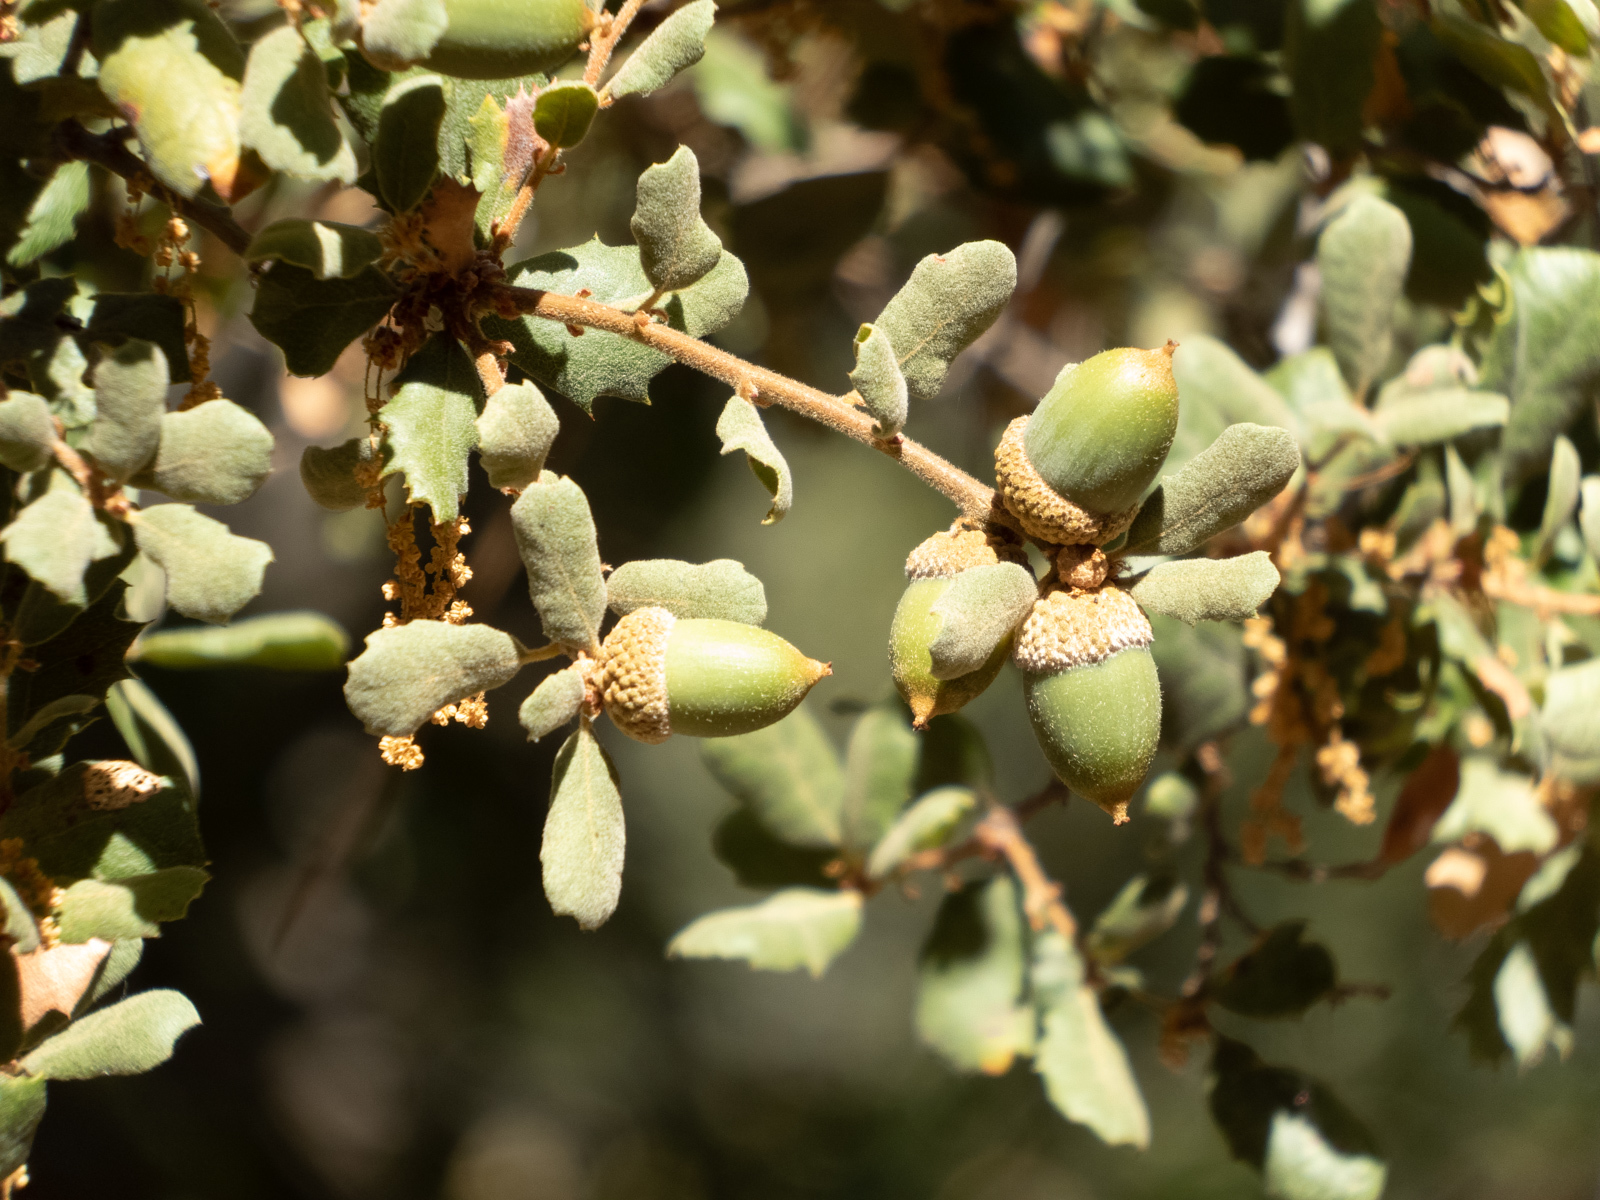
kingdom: Plantae
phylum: Tracheophyta
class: Magnoliopsida
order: Fagales
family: Fagaceae
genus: Quercus
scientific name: Quercus durata
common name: Leather oak
